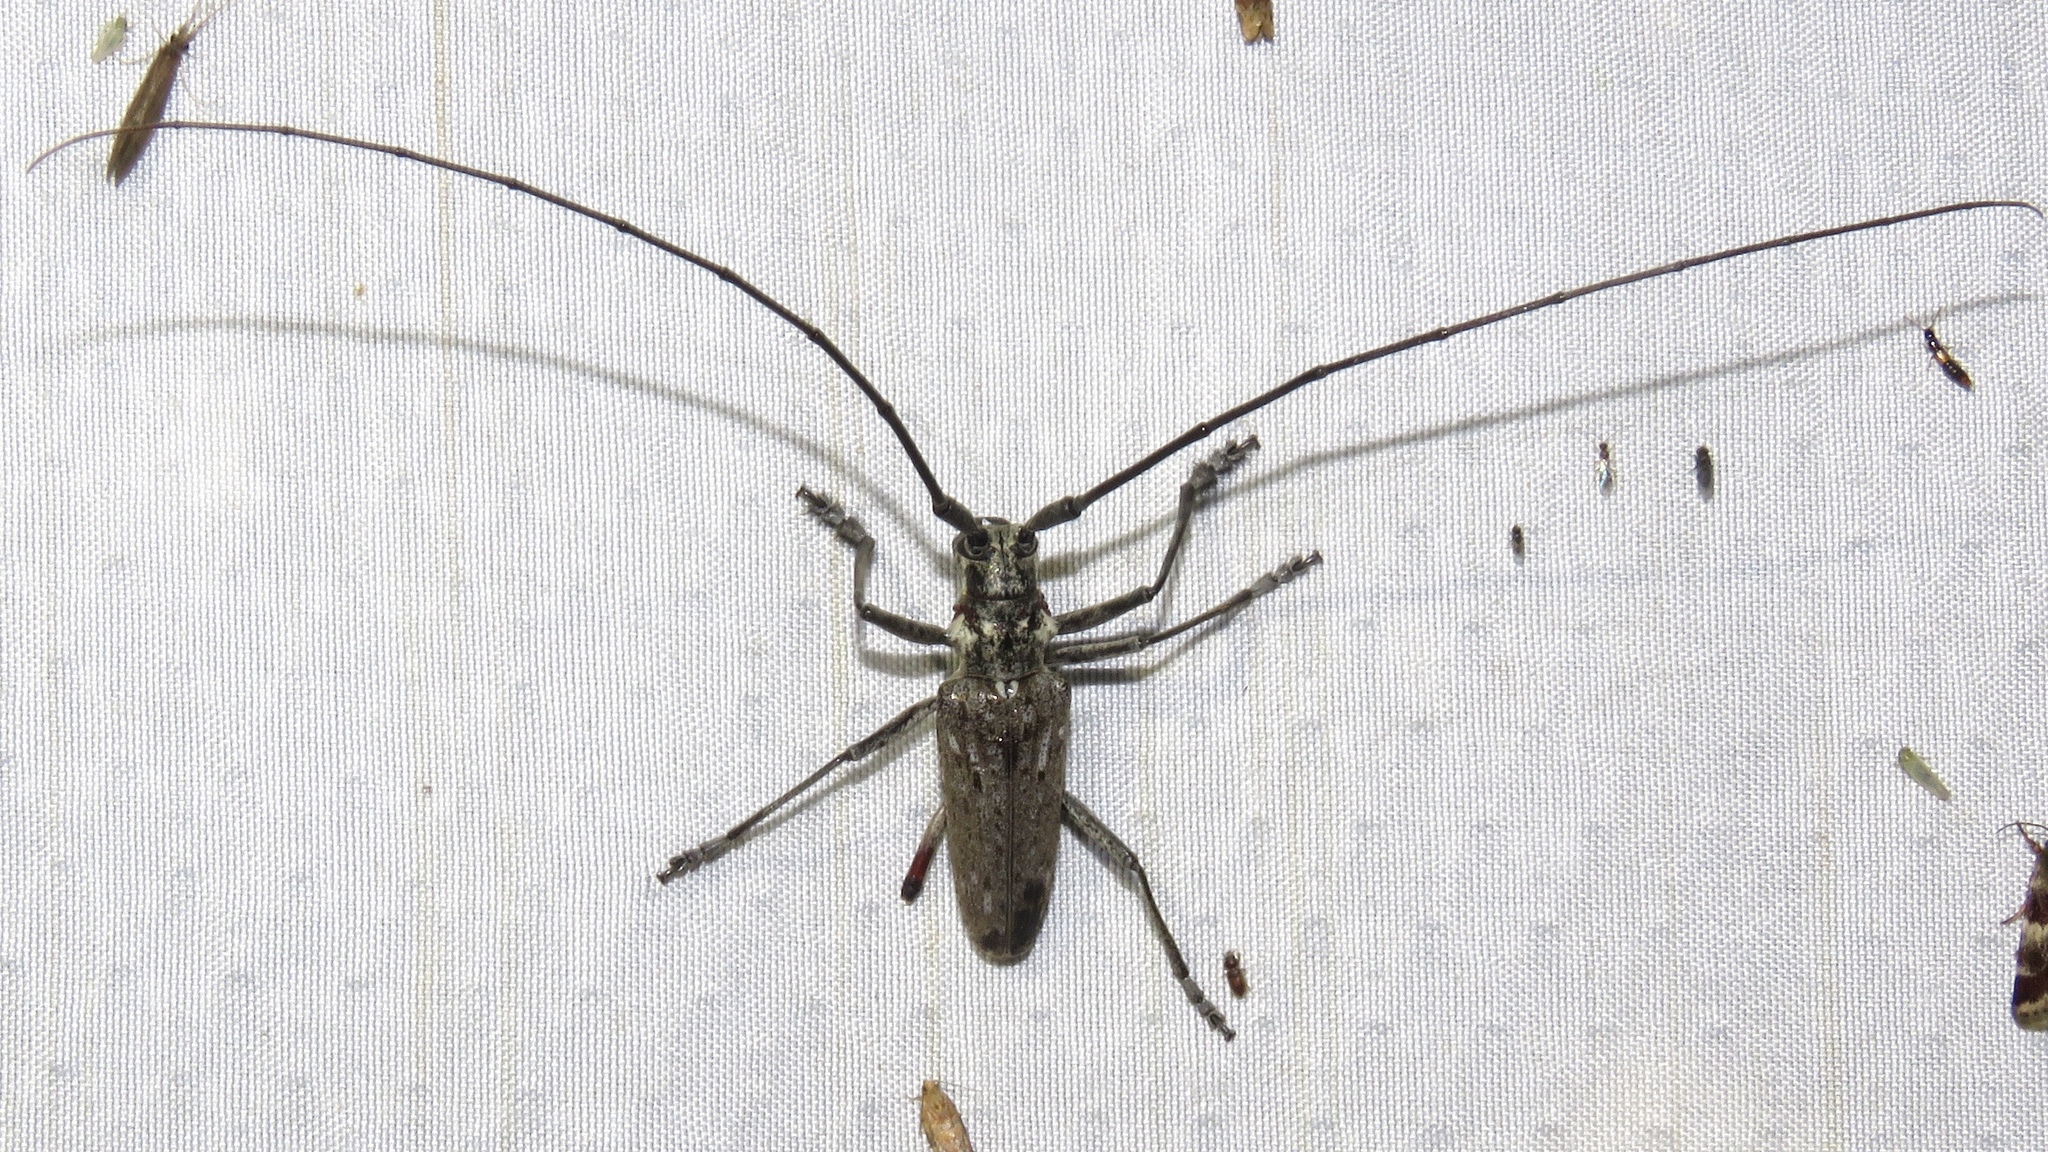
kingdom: Animalia
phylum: Arthropoda
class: Insecta
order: Coleoptera
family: Cerambycidae
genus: Monochamus
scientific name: Monochamus notatus
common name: Northeastern pine sawyer beetle
